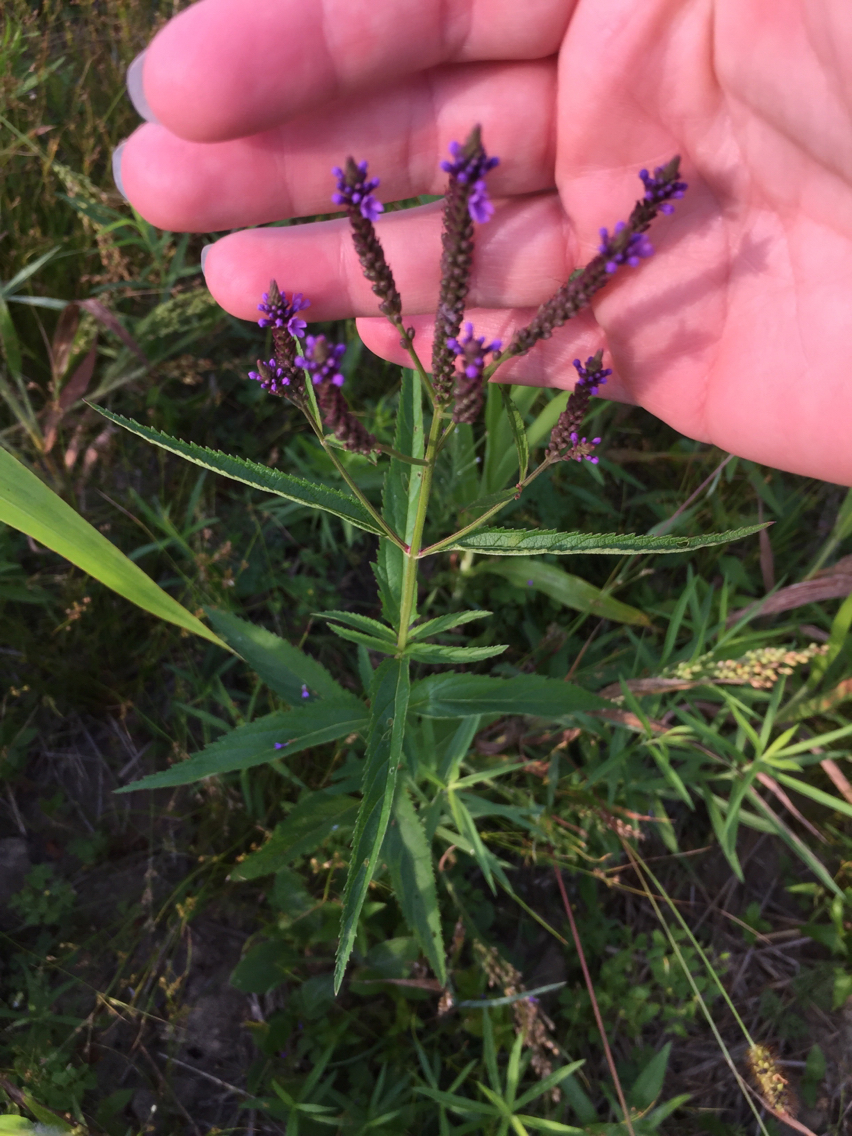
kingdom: Plantae
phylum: Tracheophyta
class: Magnoliopsida
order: Lamiales
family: Verbenaceae
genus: Verbena
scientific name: Verbena hastata
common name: American blue vervain
